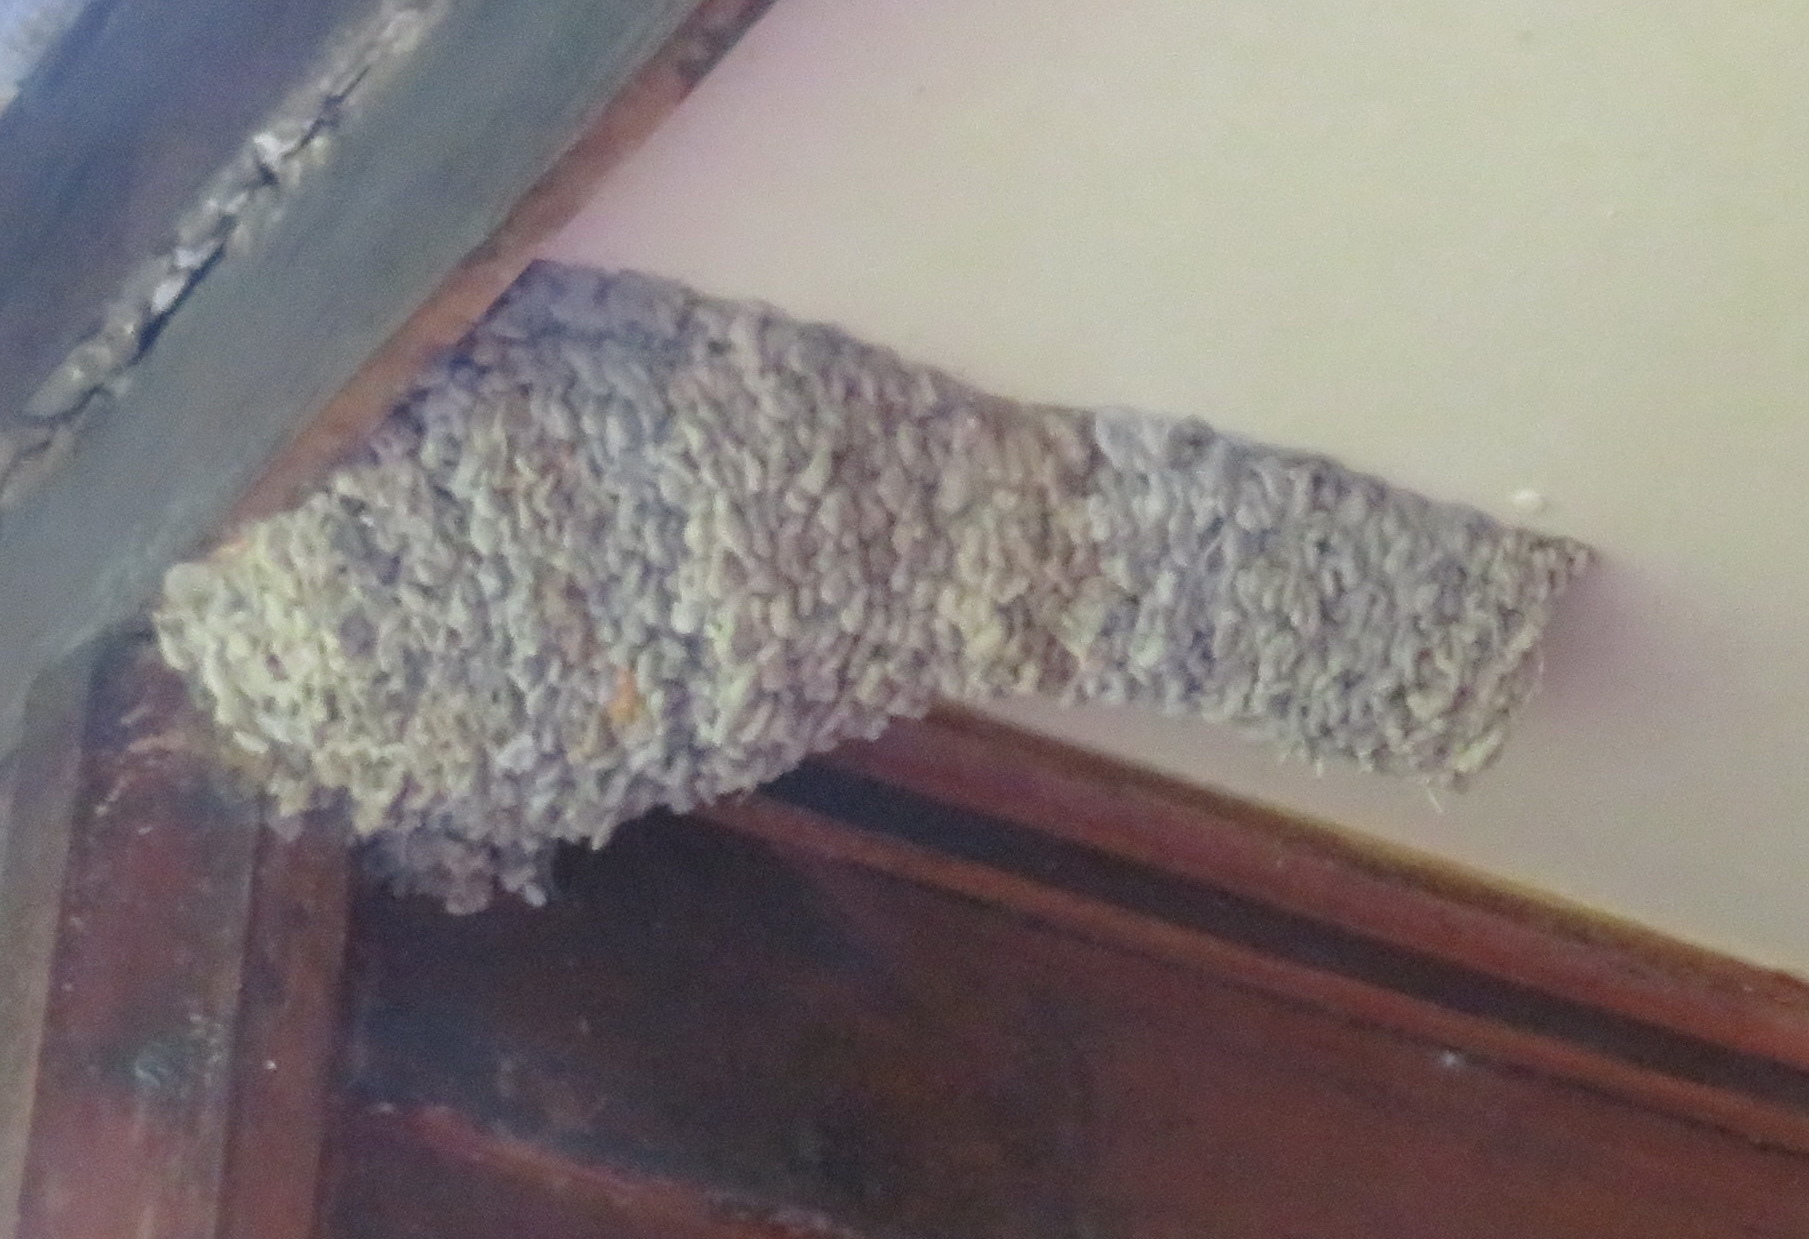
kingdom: Animalia
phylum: Chordata
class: Aves
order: Passeriformes
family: Hirundinidae
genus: Cecropis
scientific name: Cecropis cucullata
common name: Greater striped-swallow
